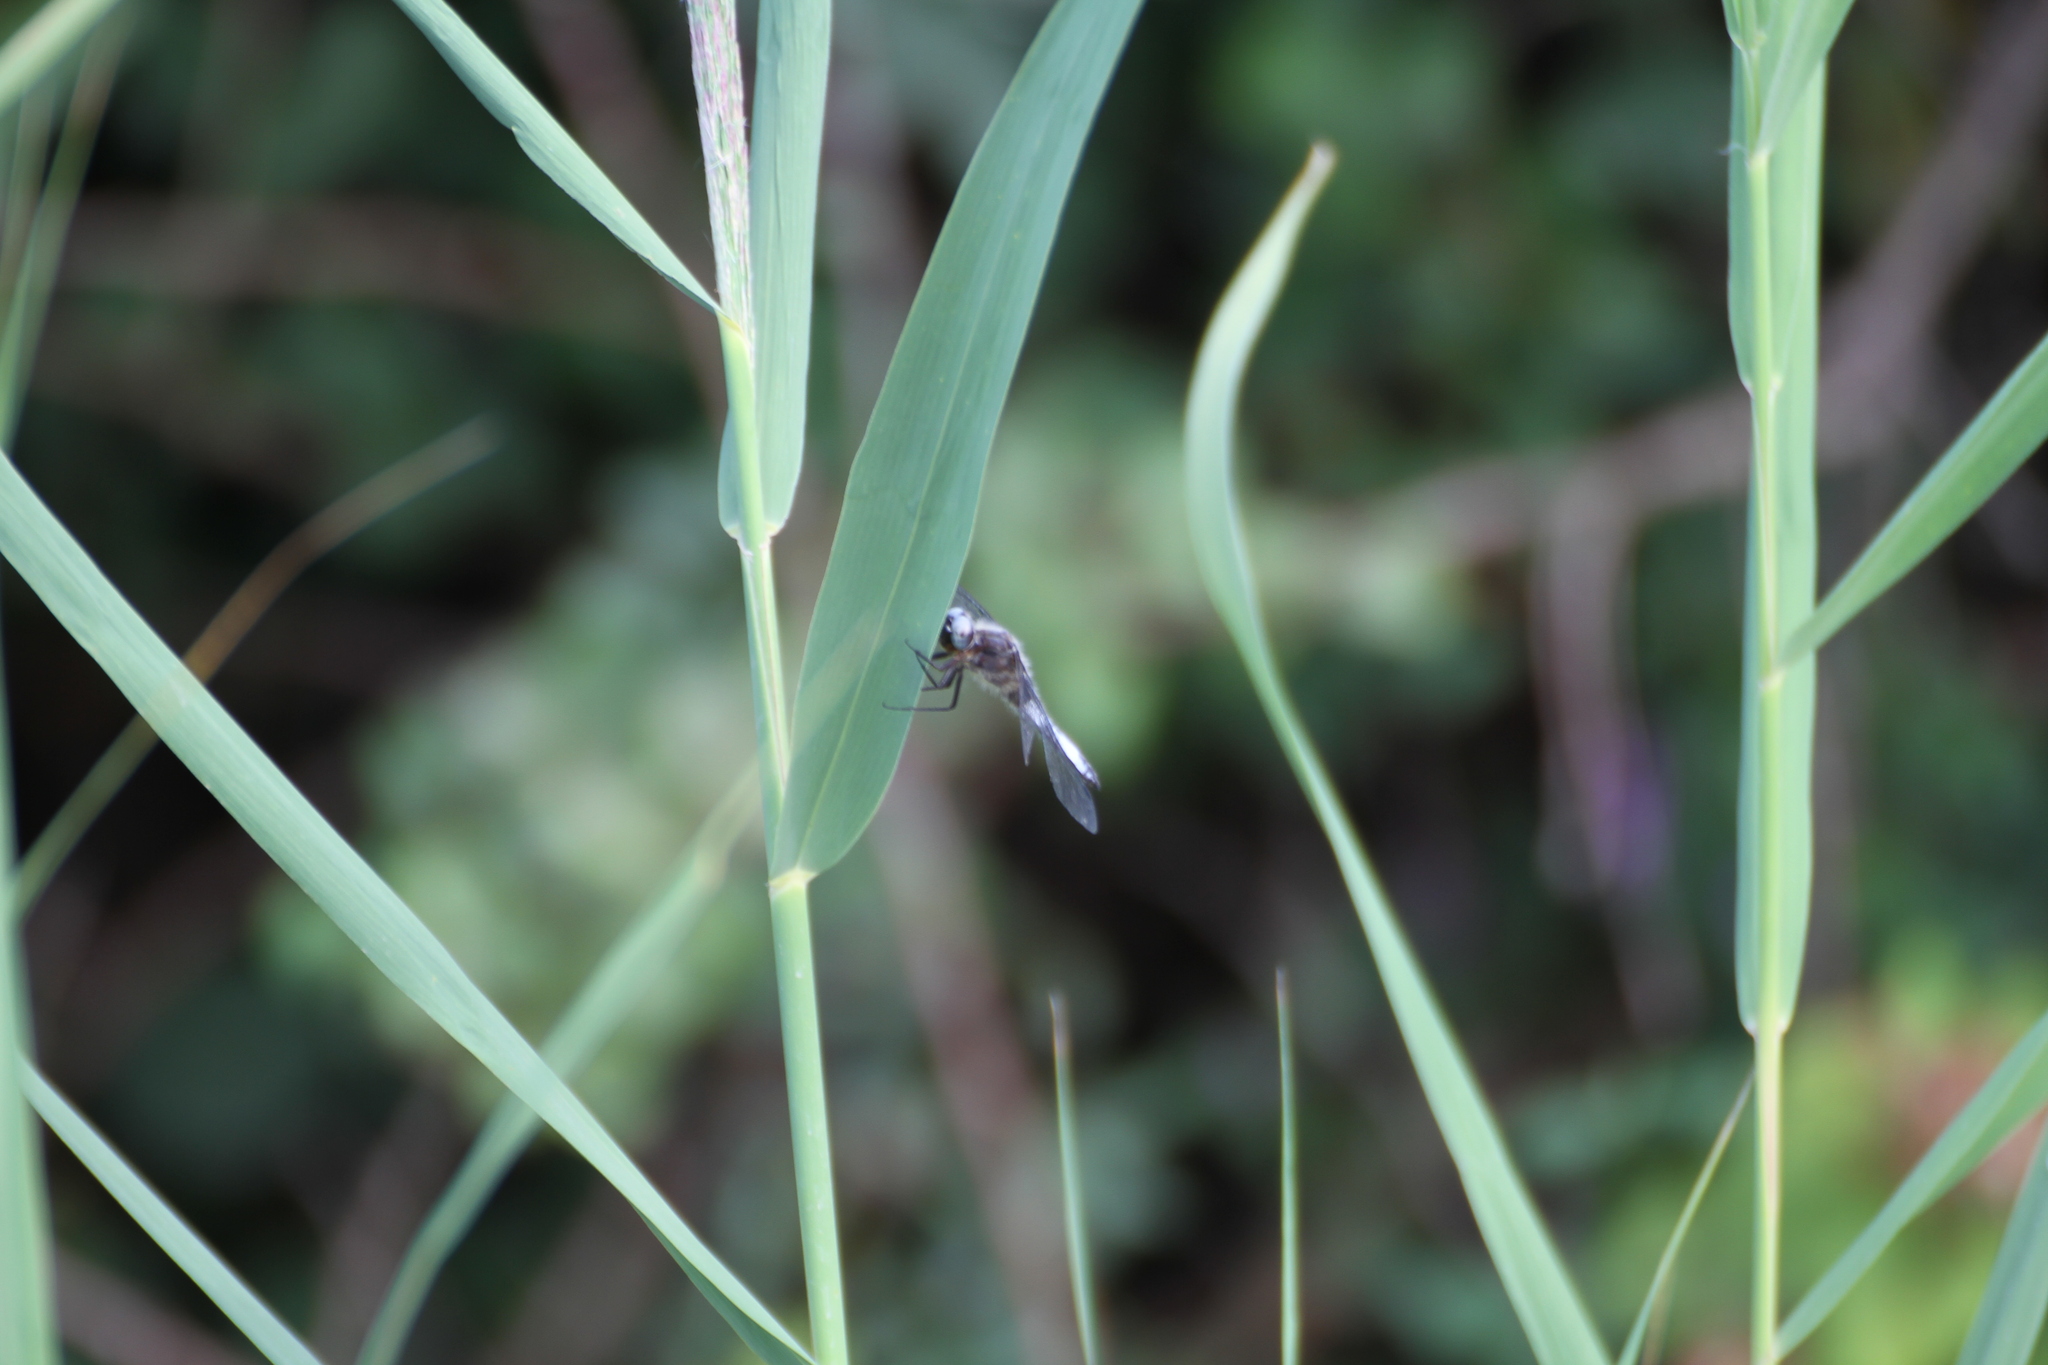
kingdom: Animalia
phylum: Arthropoda
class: Insecta
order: Odonata
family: Libellulidae
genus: Libellula
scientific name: Libellula fulva
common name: Blue chaser
